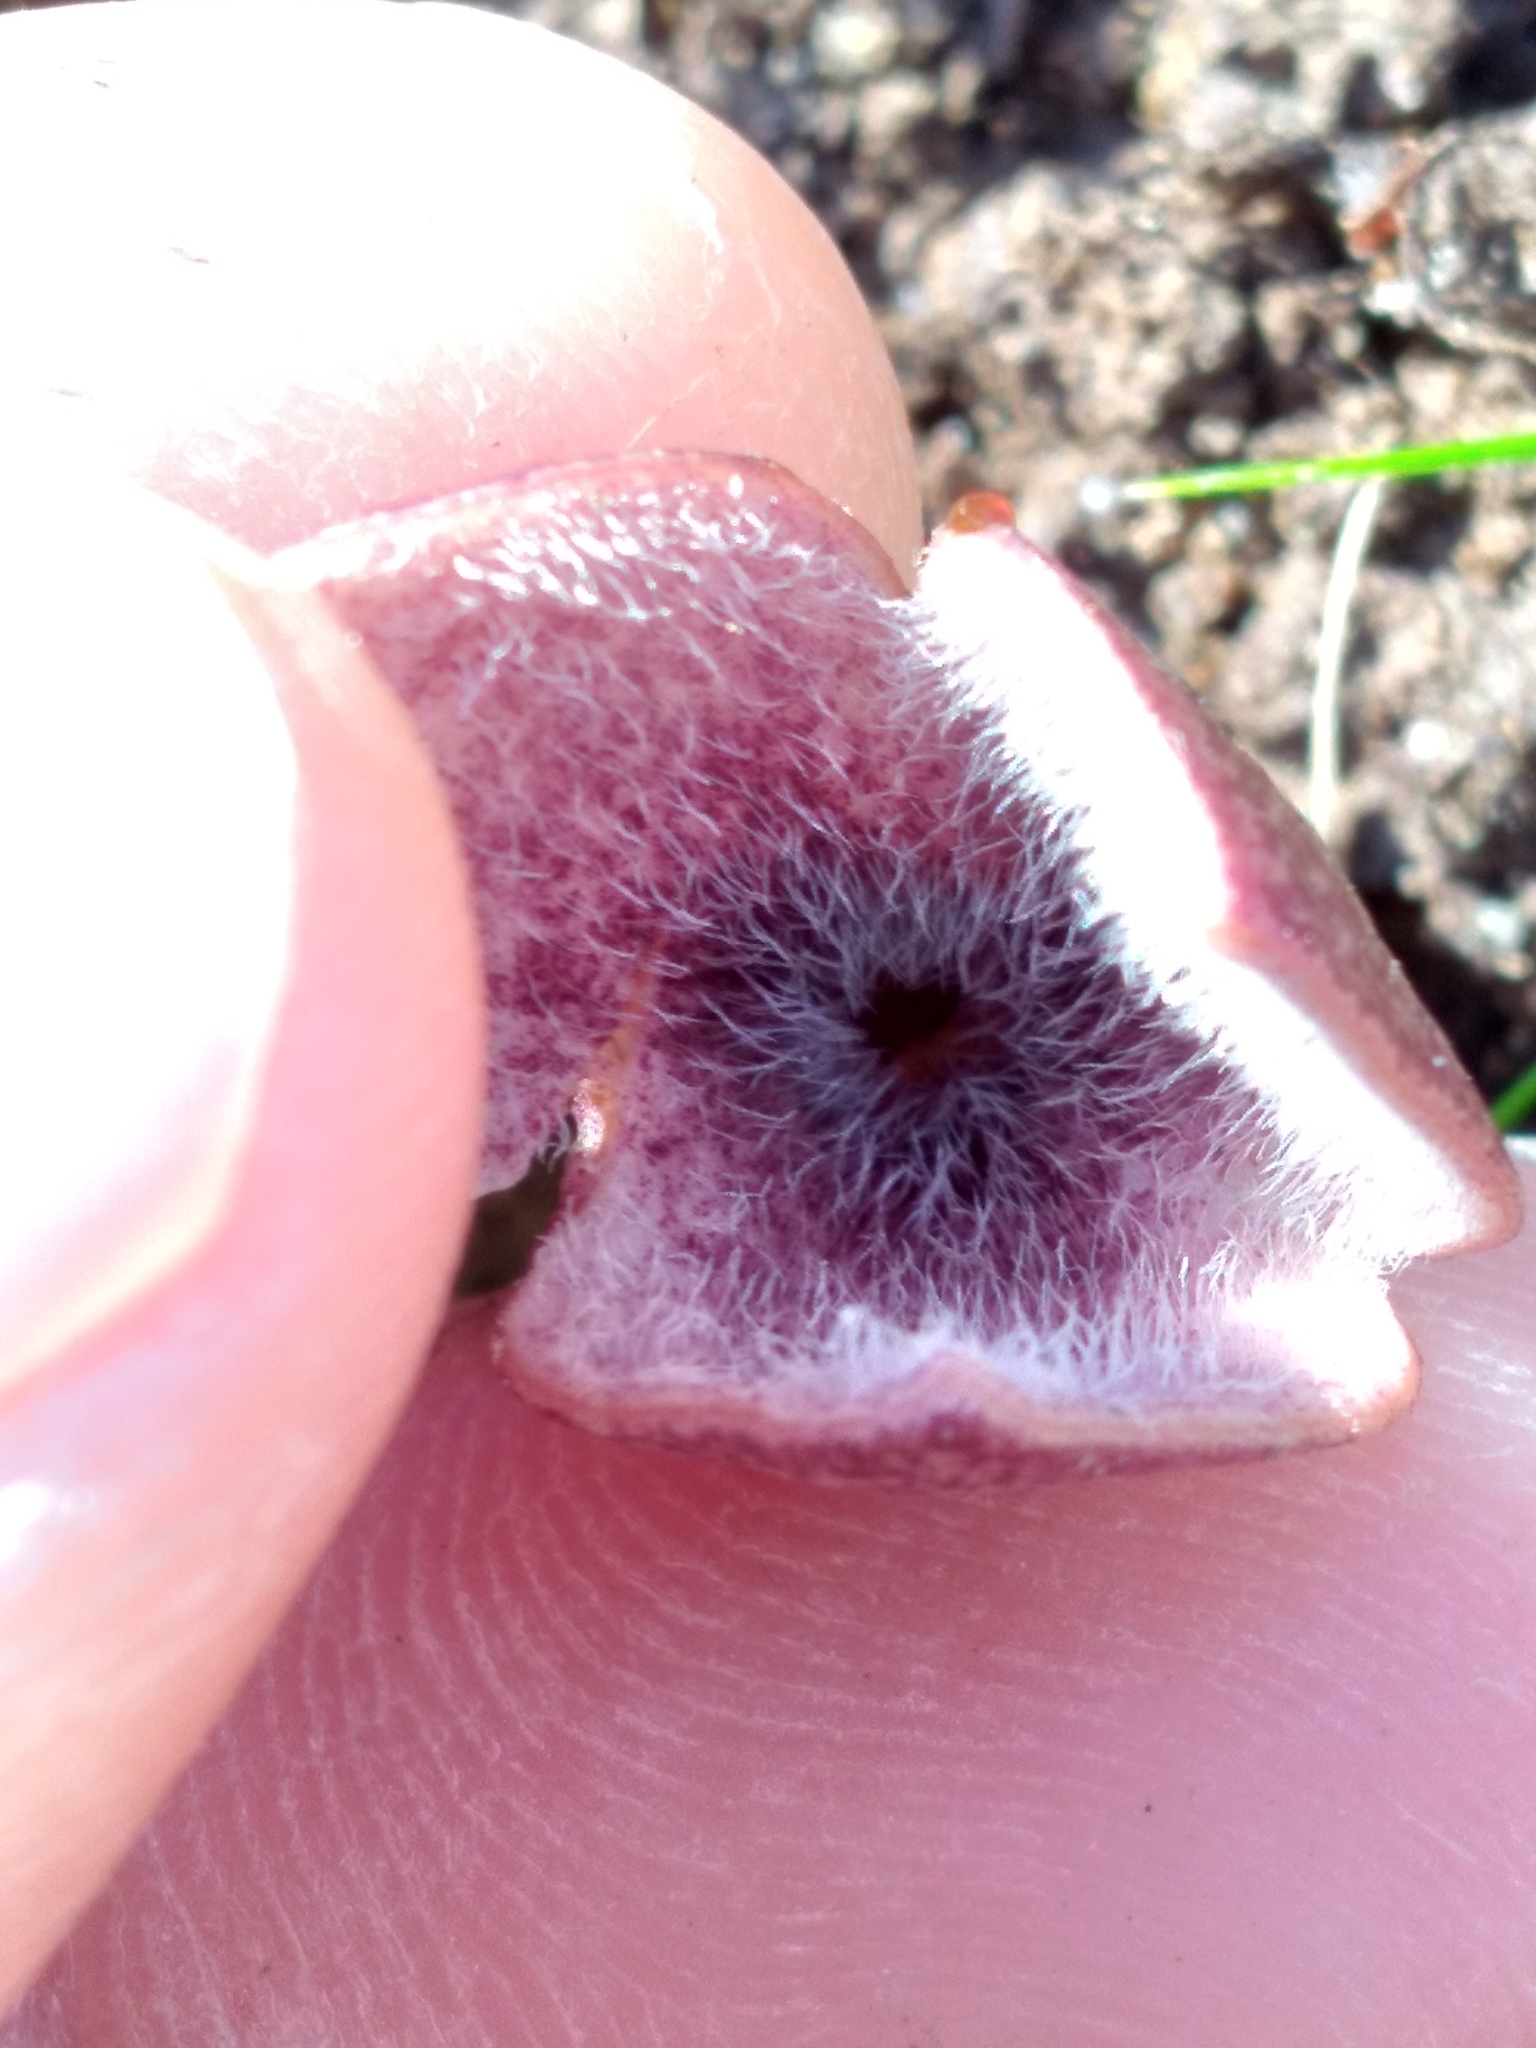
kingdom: Plantae
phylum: Tracheophyta
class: Magnoliopsida
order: Piperales
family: Aristolochiaceae
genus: Hexastylis
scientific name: Hexastylis arifolia
